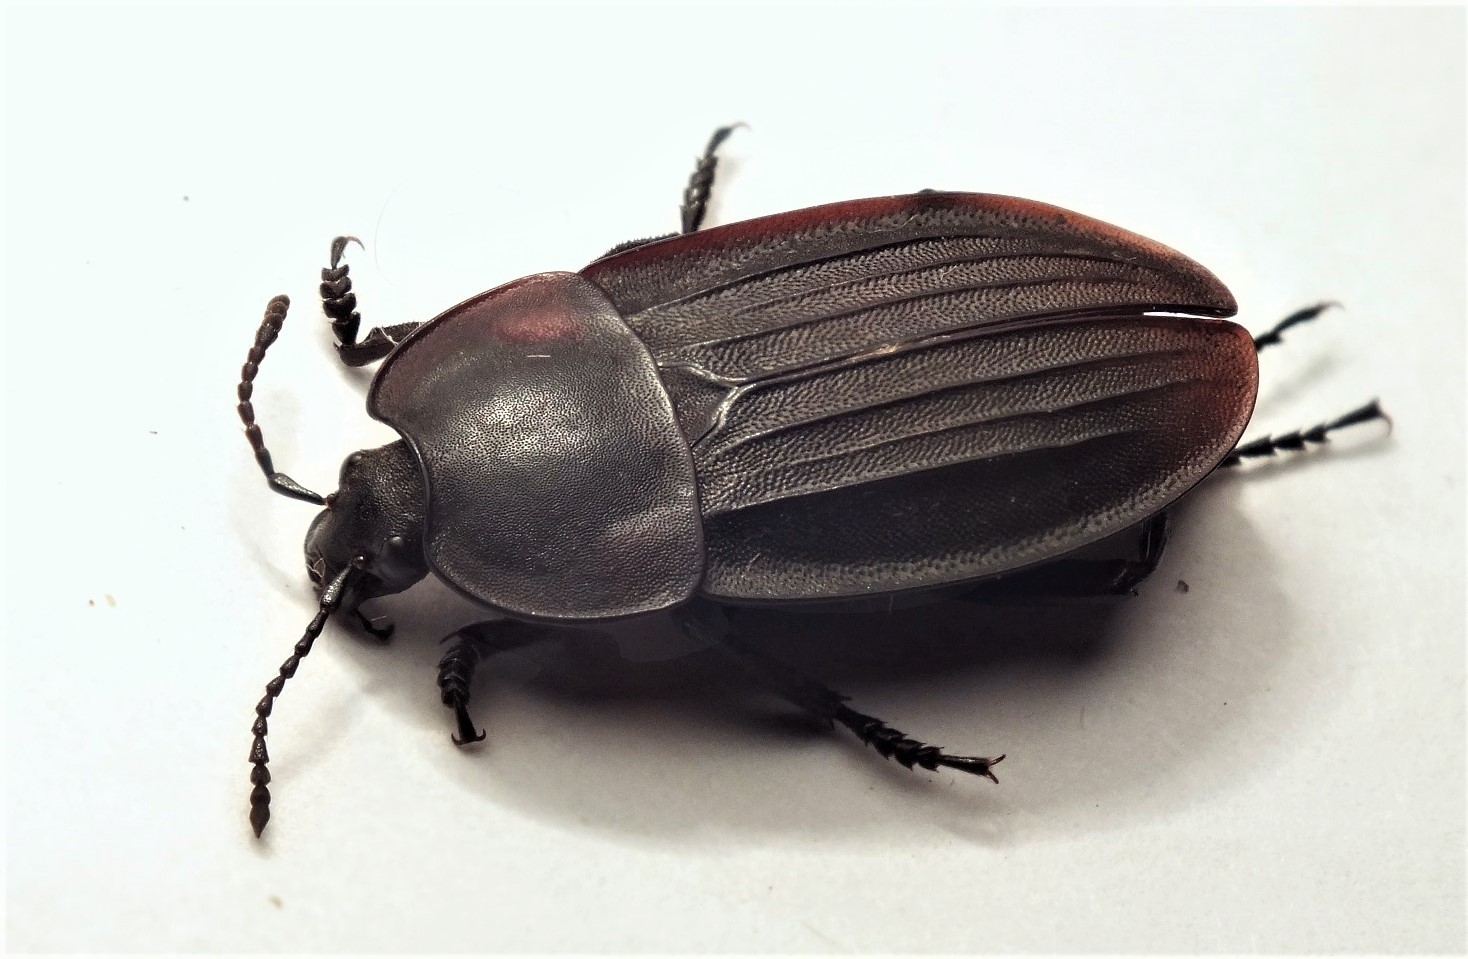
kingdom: Animalia
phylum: Arthropoda
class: Insecta
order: Coleoptera
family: Staphylinidae
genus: Silpha
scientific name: Silpha carinata
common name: Silphid beetle
